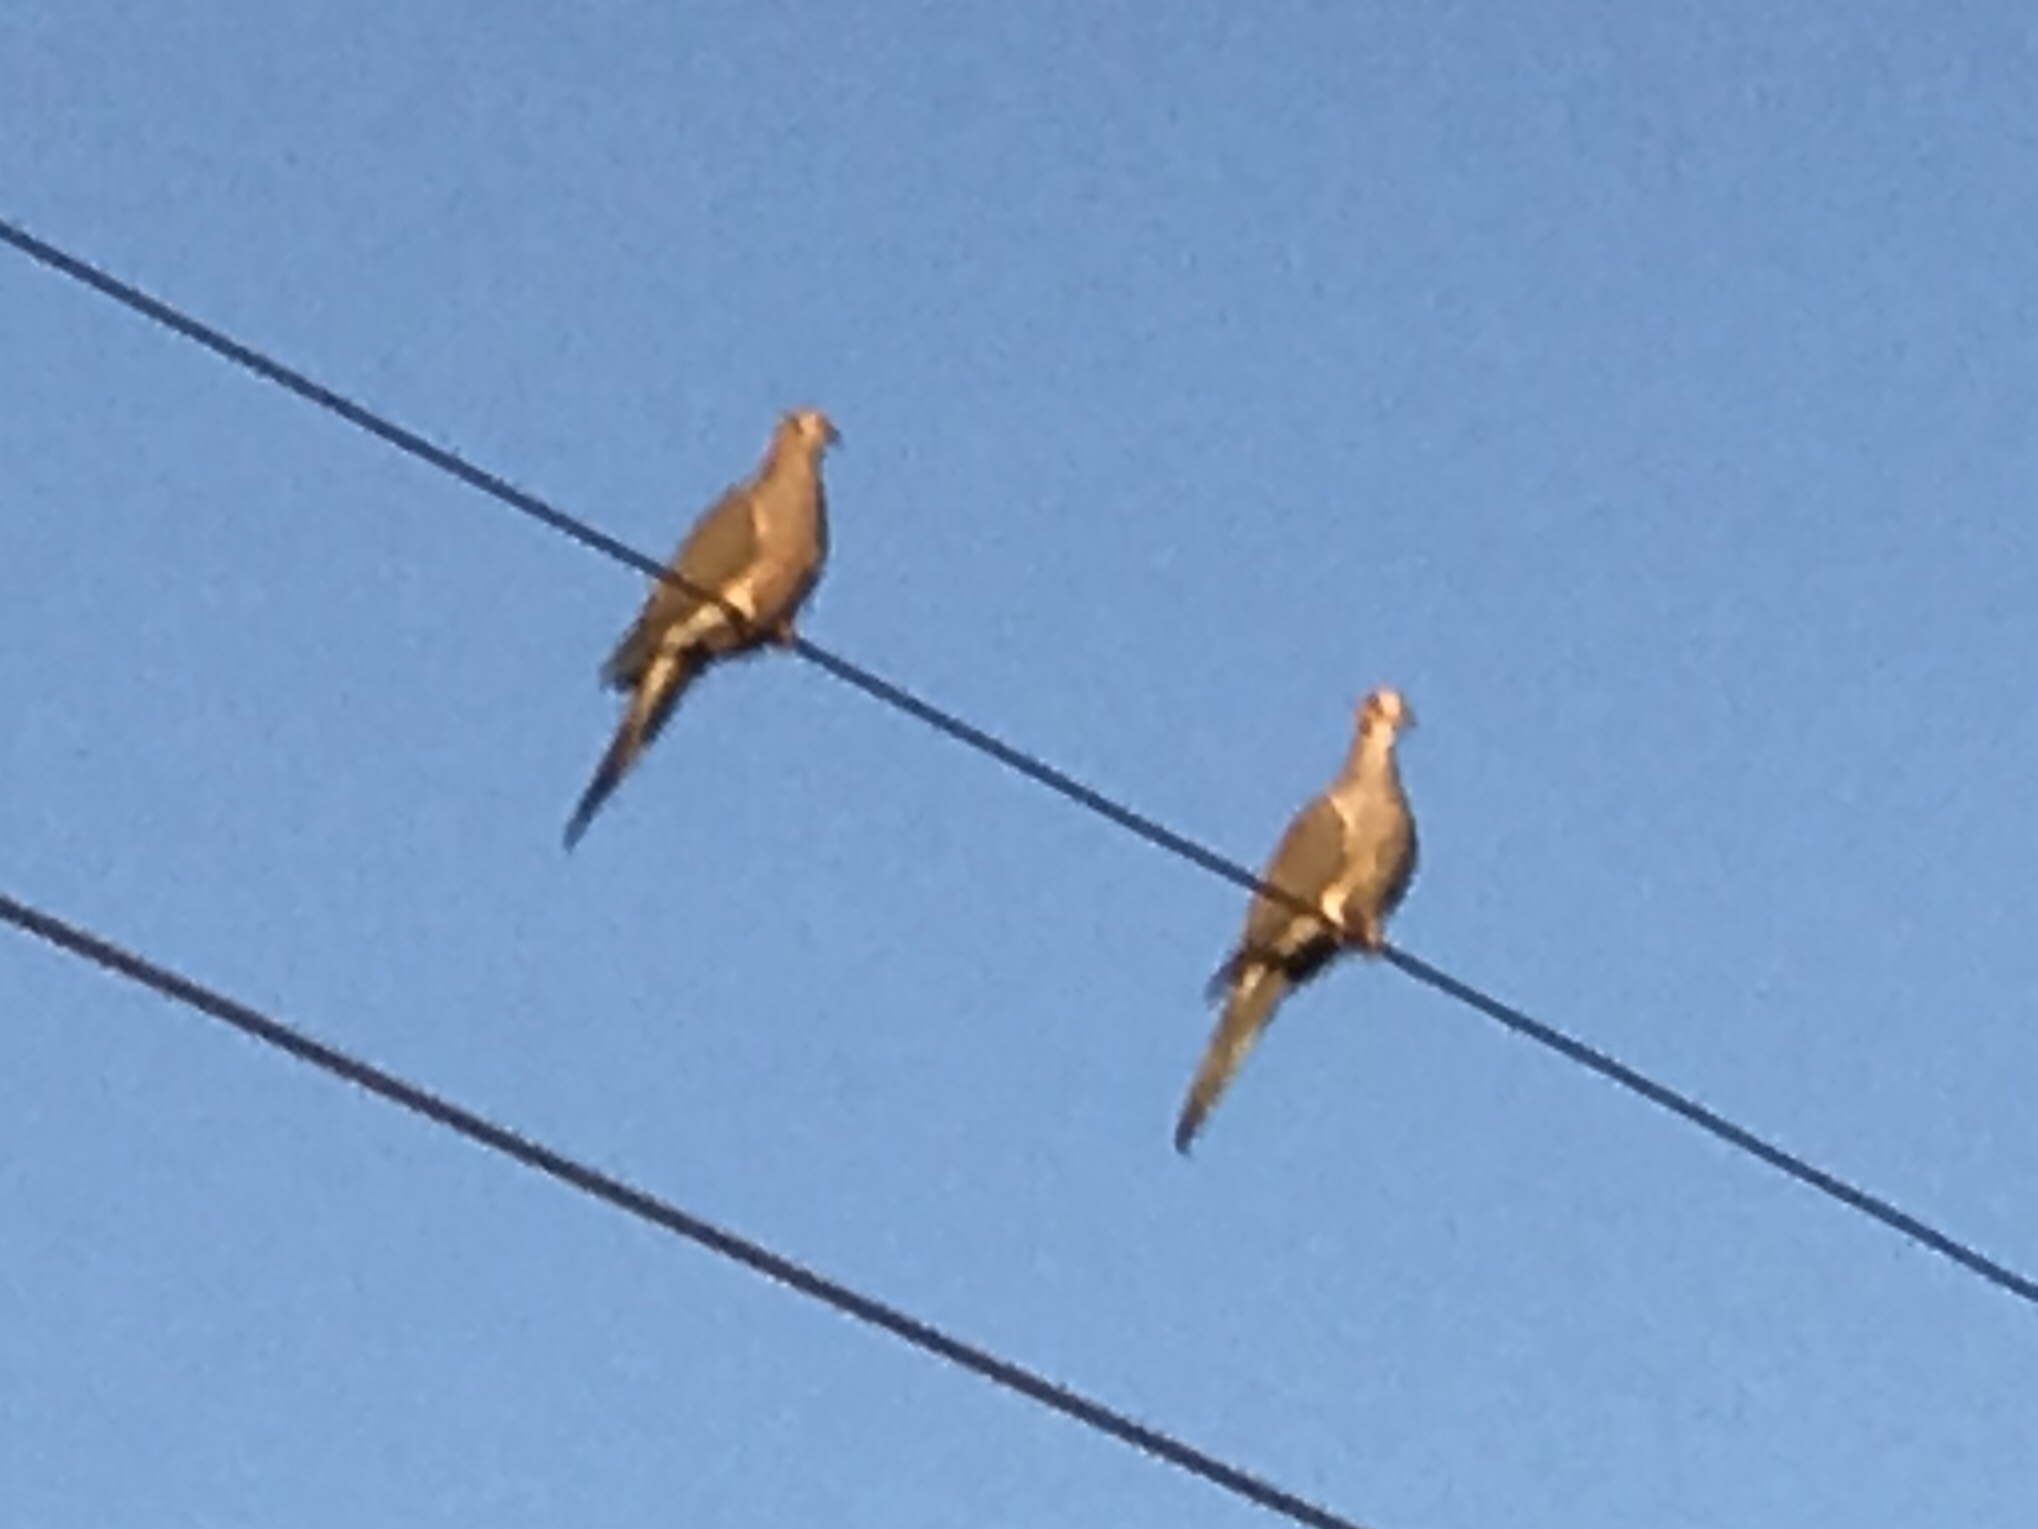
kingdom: Animalia
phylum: Chordata
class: Aves
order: Columbiformes
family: Columbidae
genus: Zenaida
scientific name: Zenaida macroura
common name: Mourning dove
